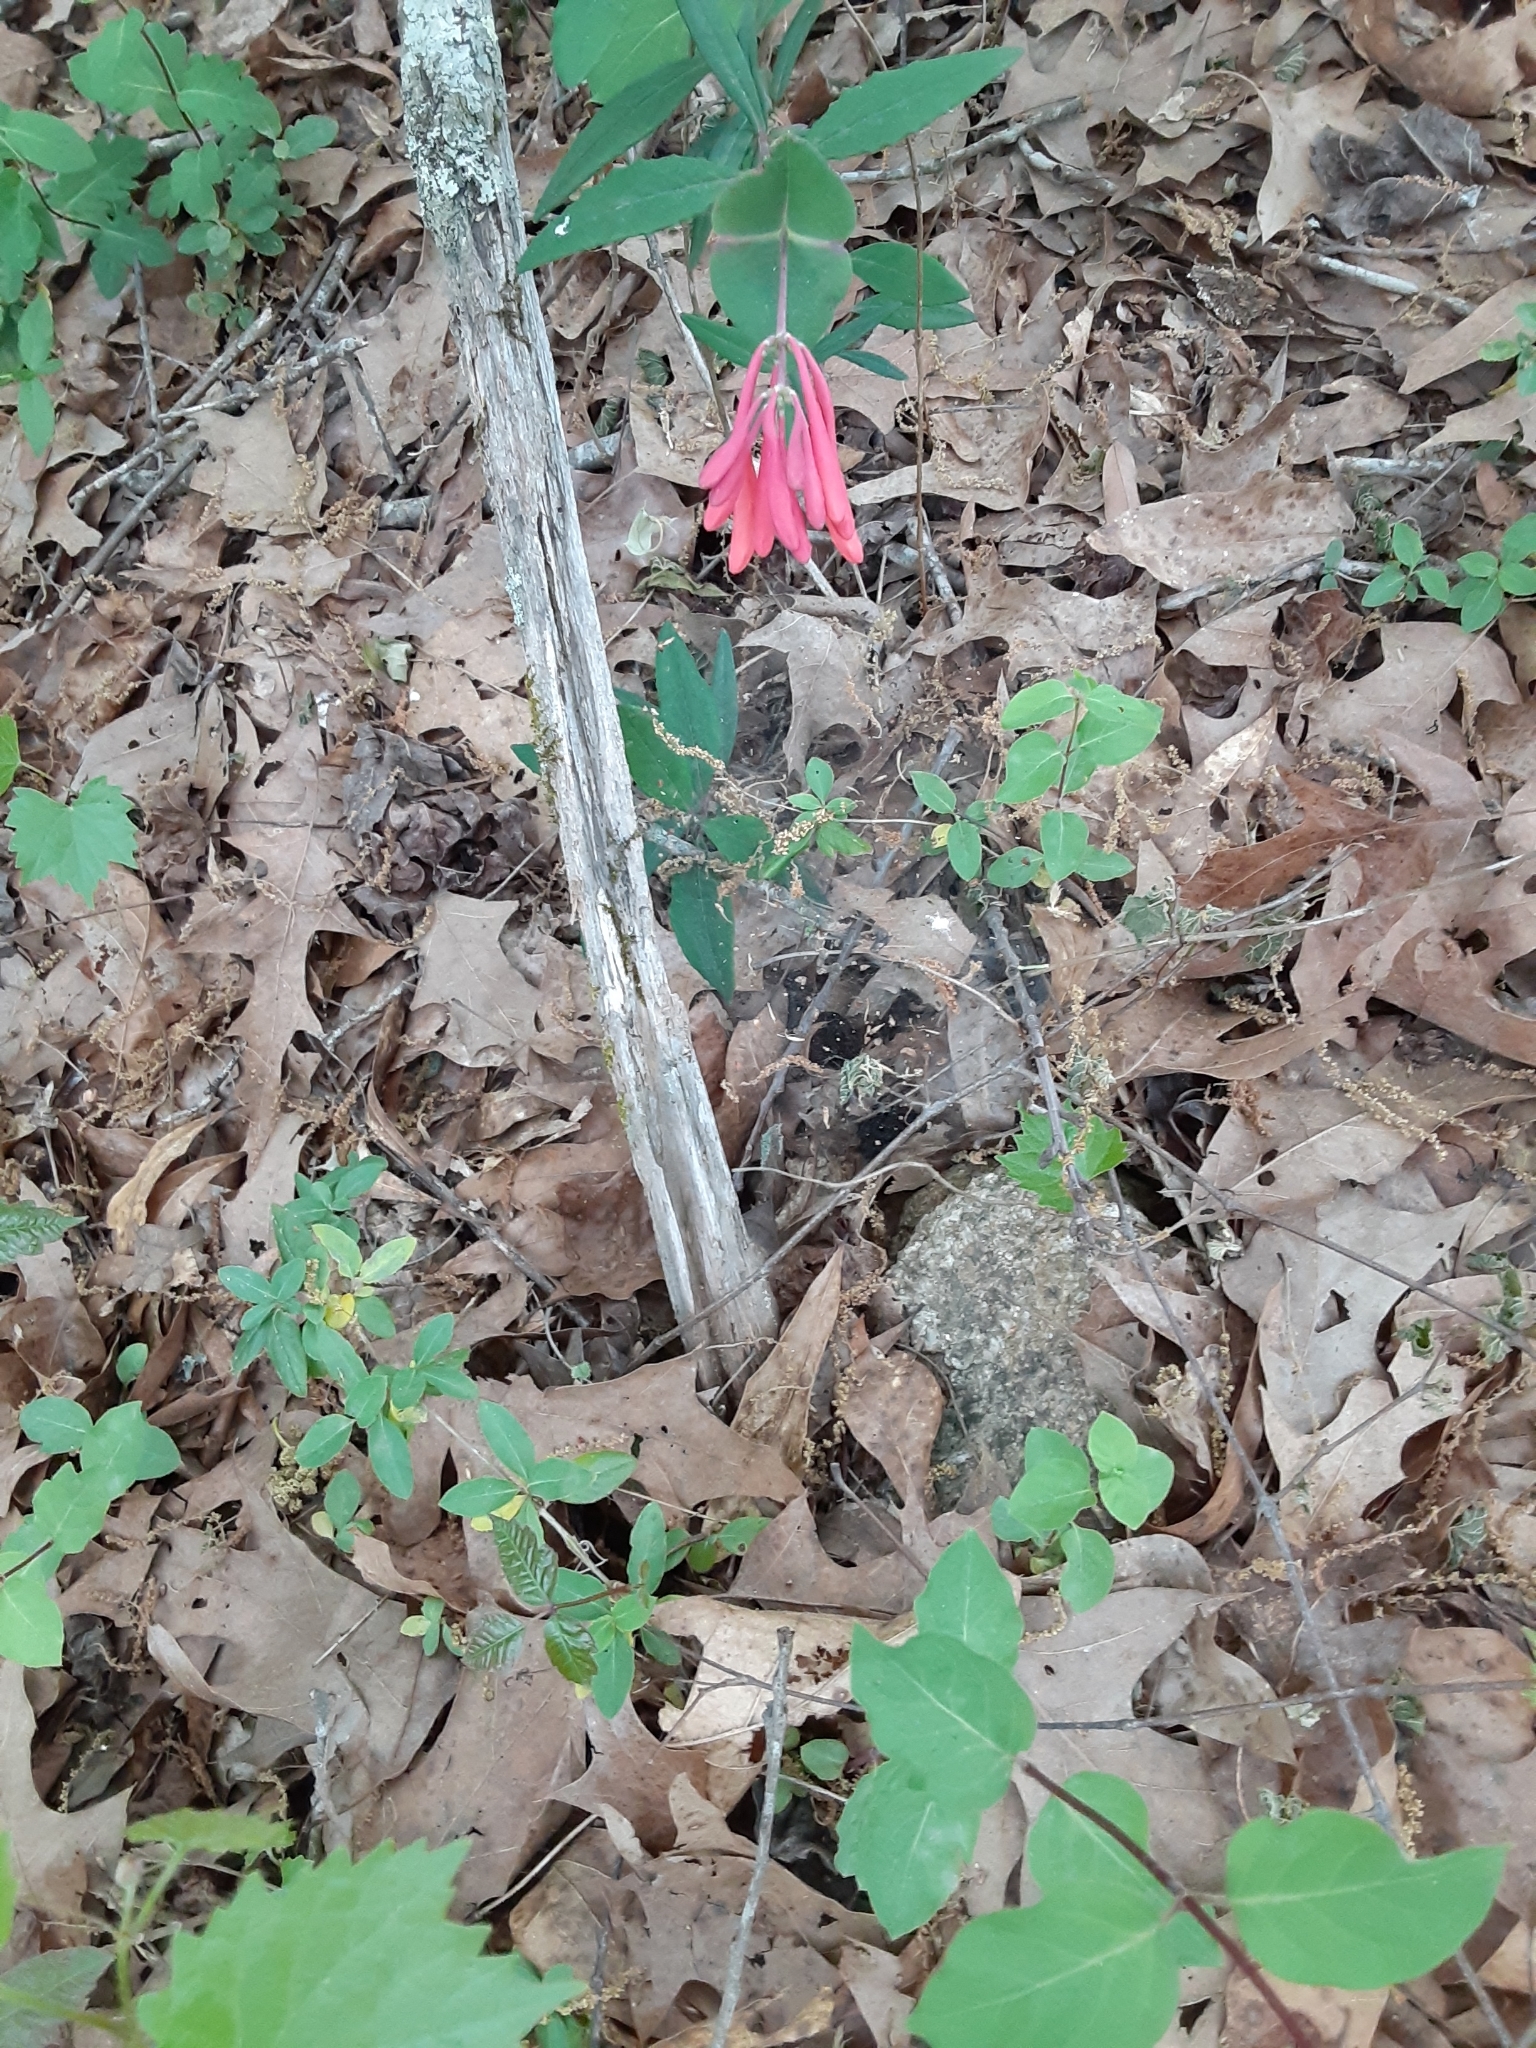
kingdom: Plantae
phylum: Tracheophyta
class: Magnoliopsida
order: Dipsacales
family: Caprifoliaceae
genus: Lonicera
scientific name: Lonicera sempervirens
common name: Coral honeysuckle
